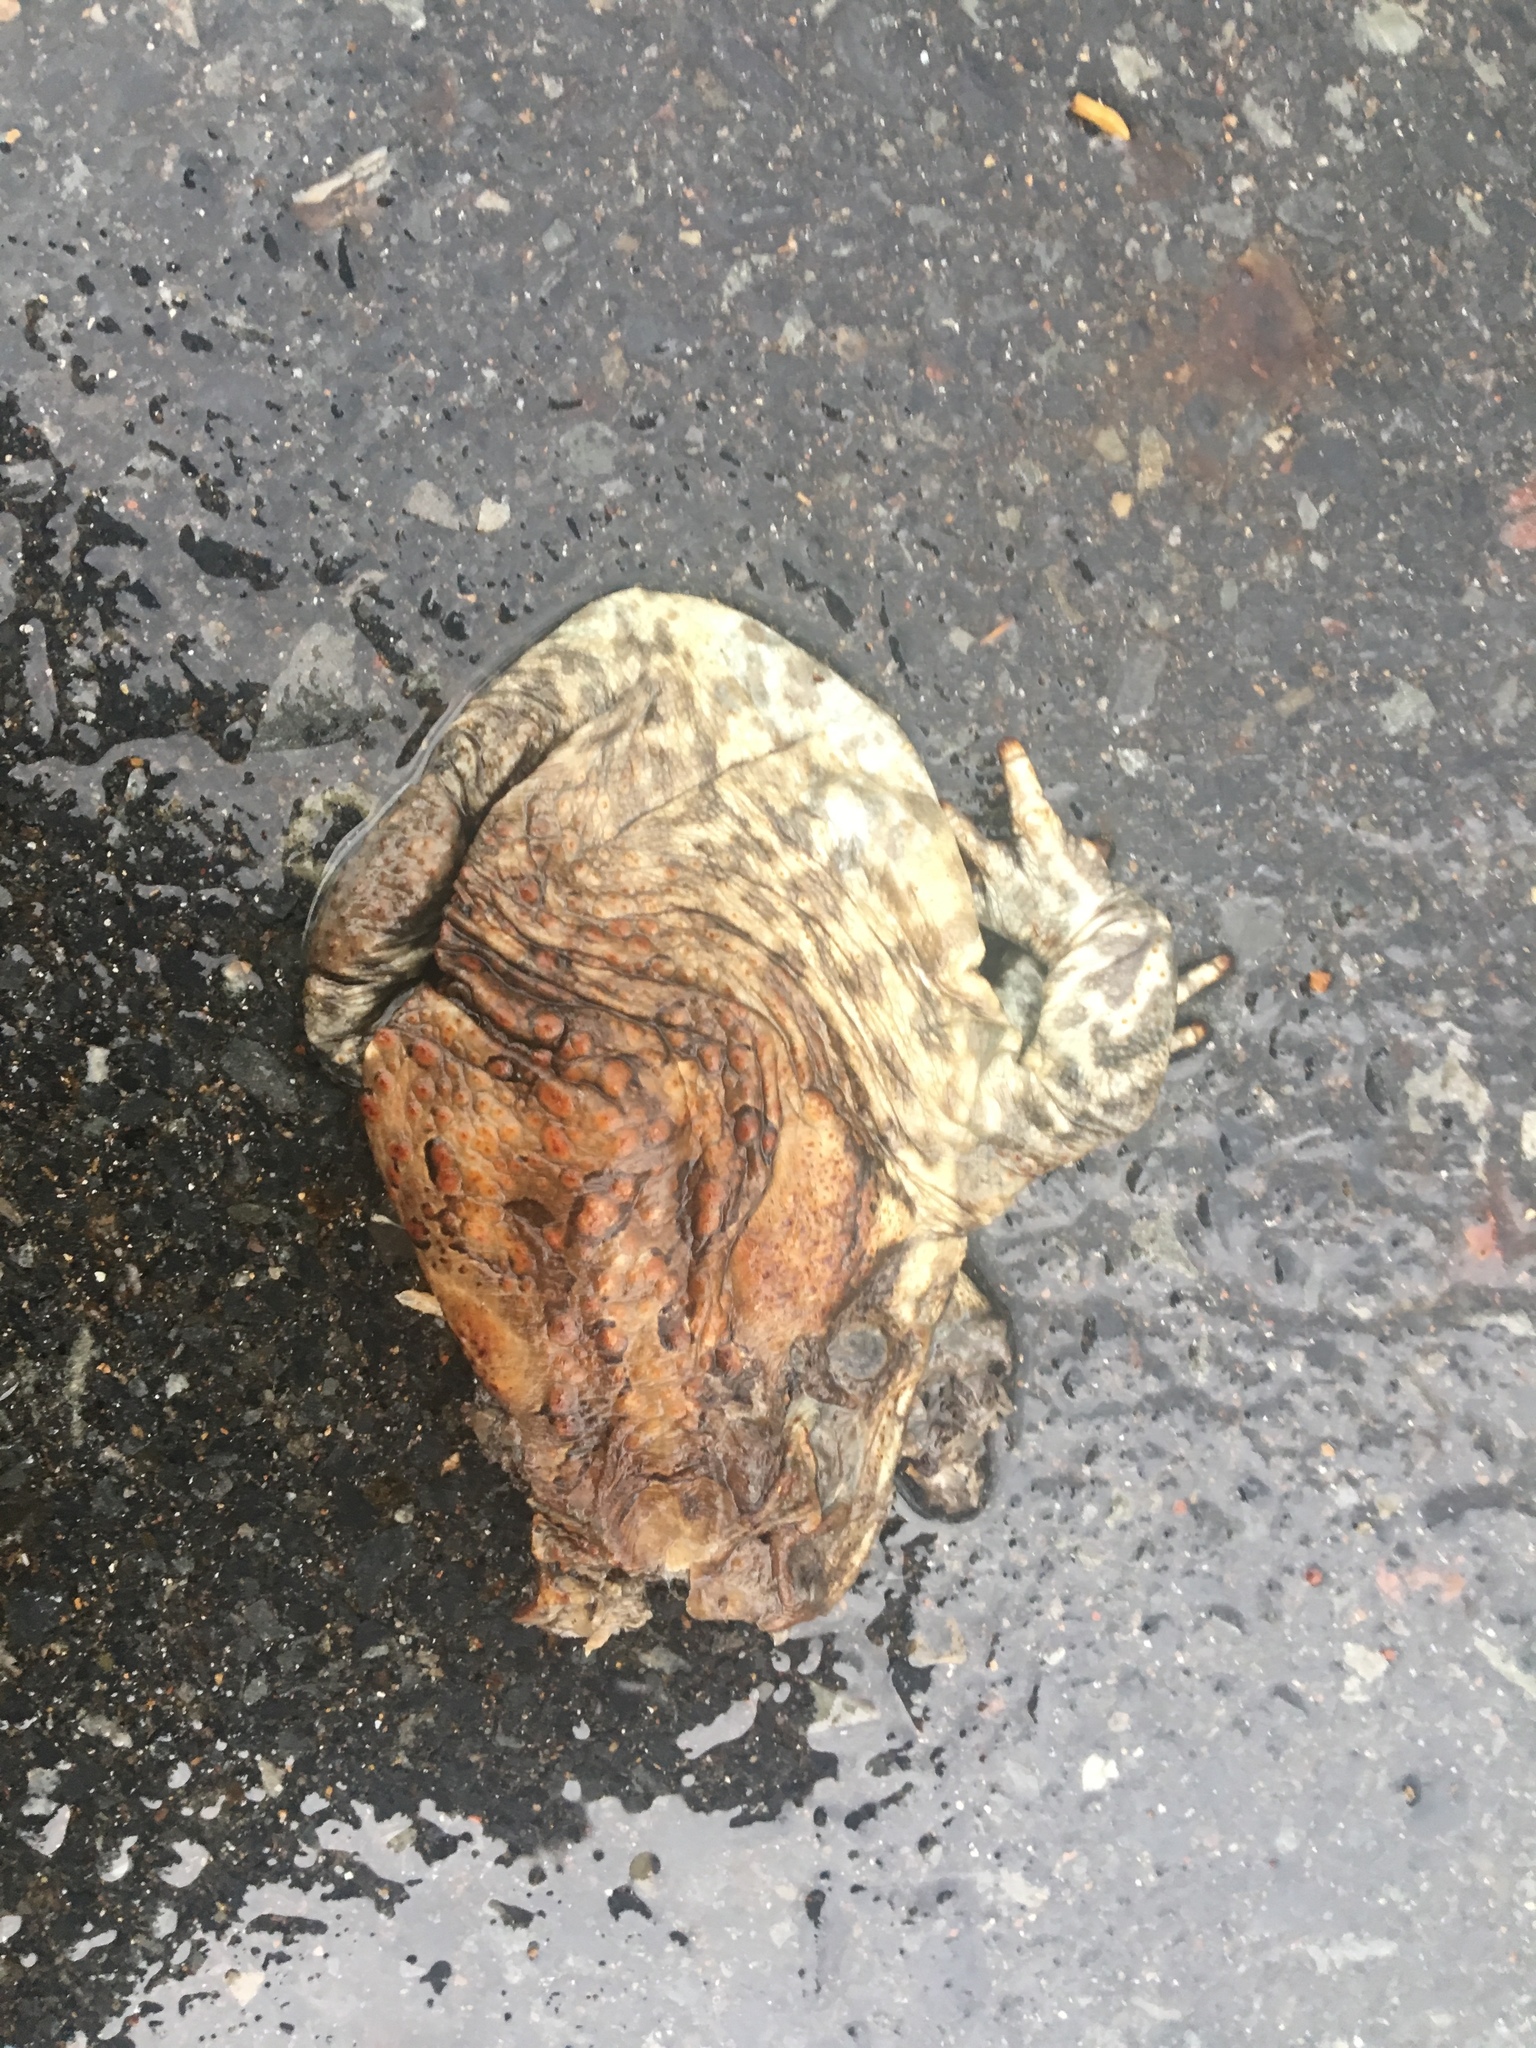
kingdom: Animalia
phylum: Chordata
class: Amphibia
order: Anura
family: Bufonidae
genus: Rhinella
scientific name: Rhinella marina
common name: Cane toad
